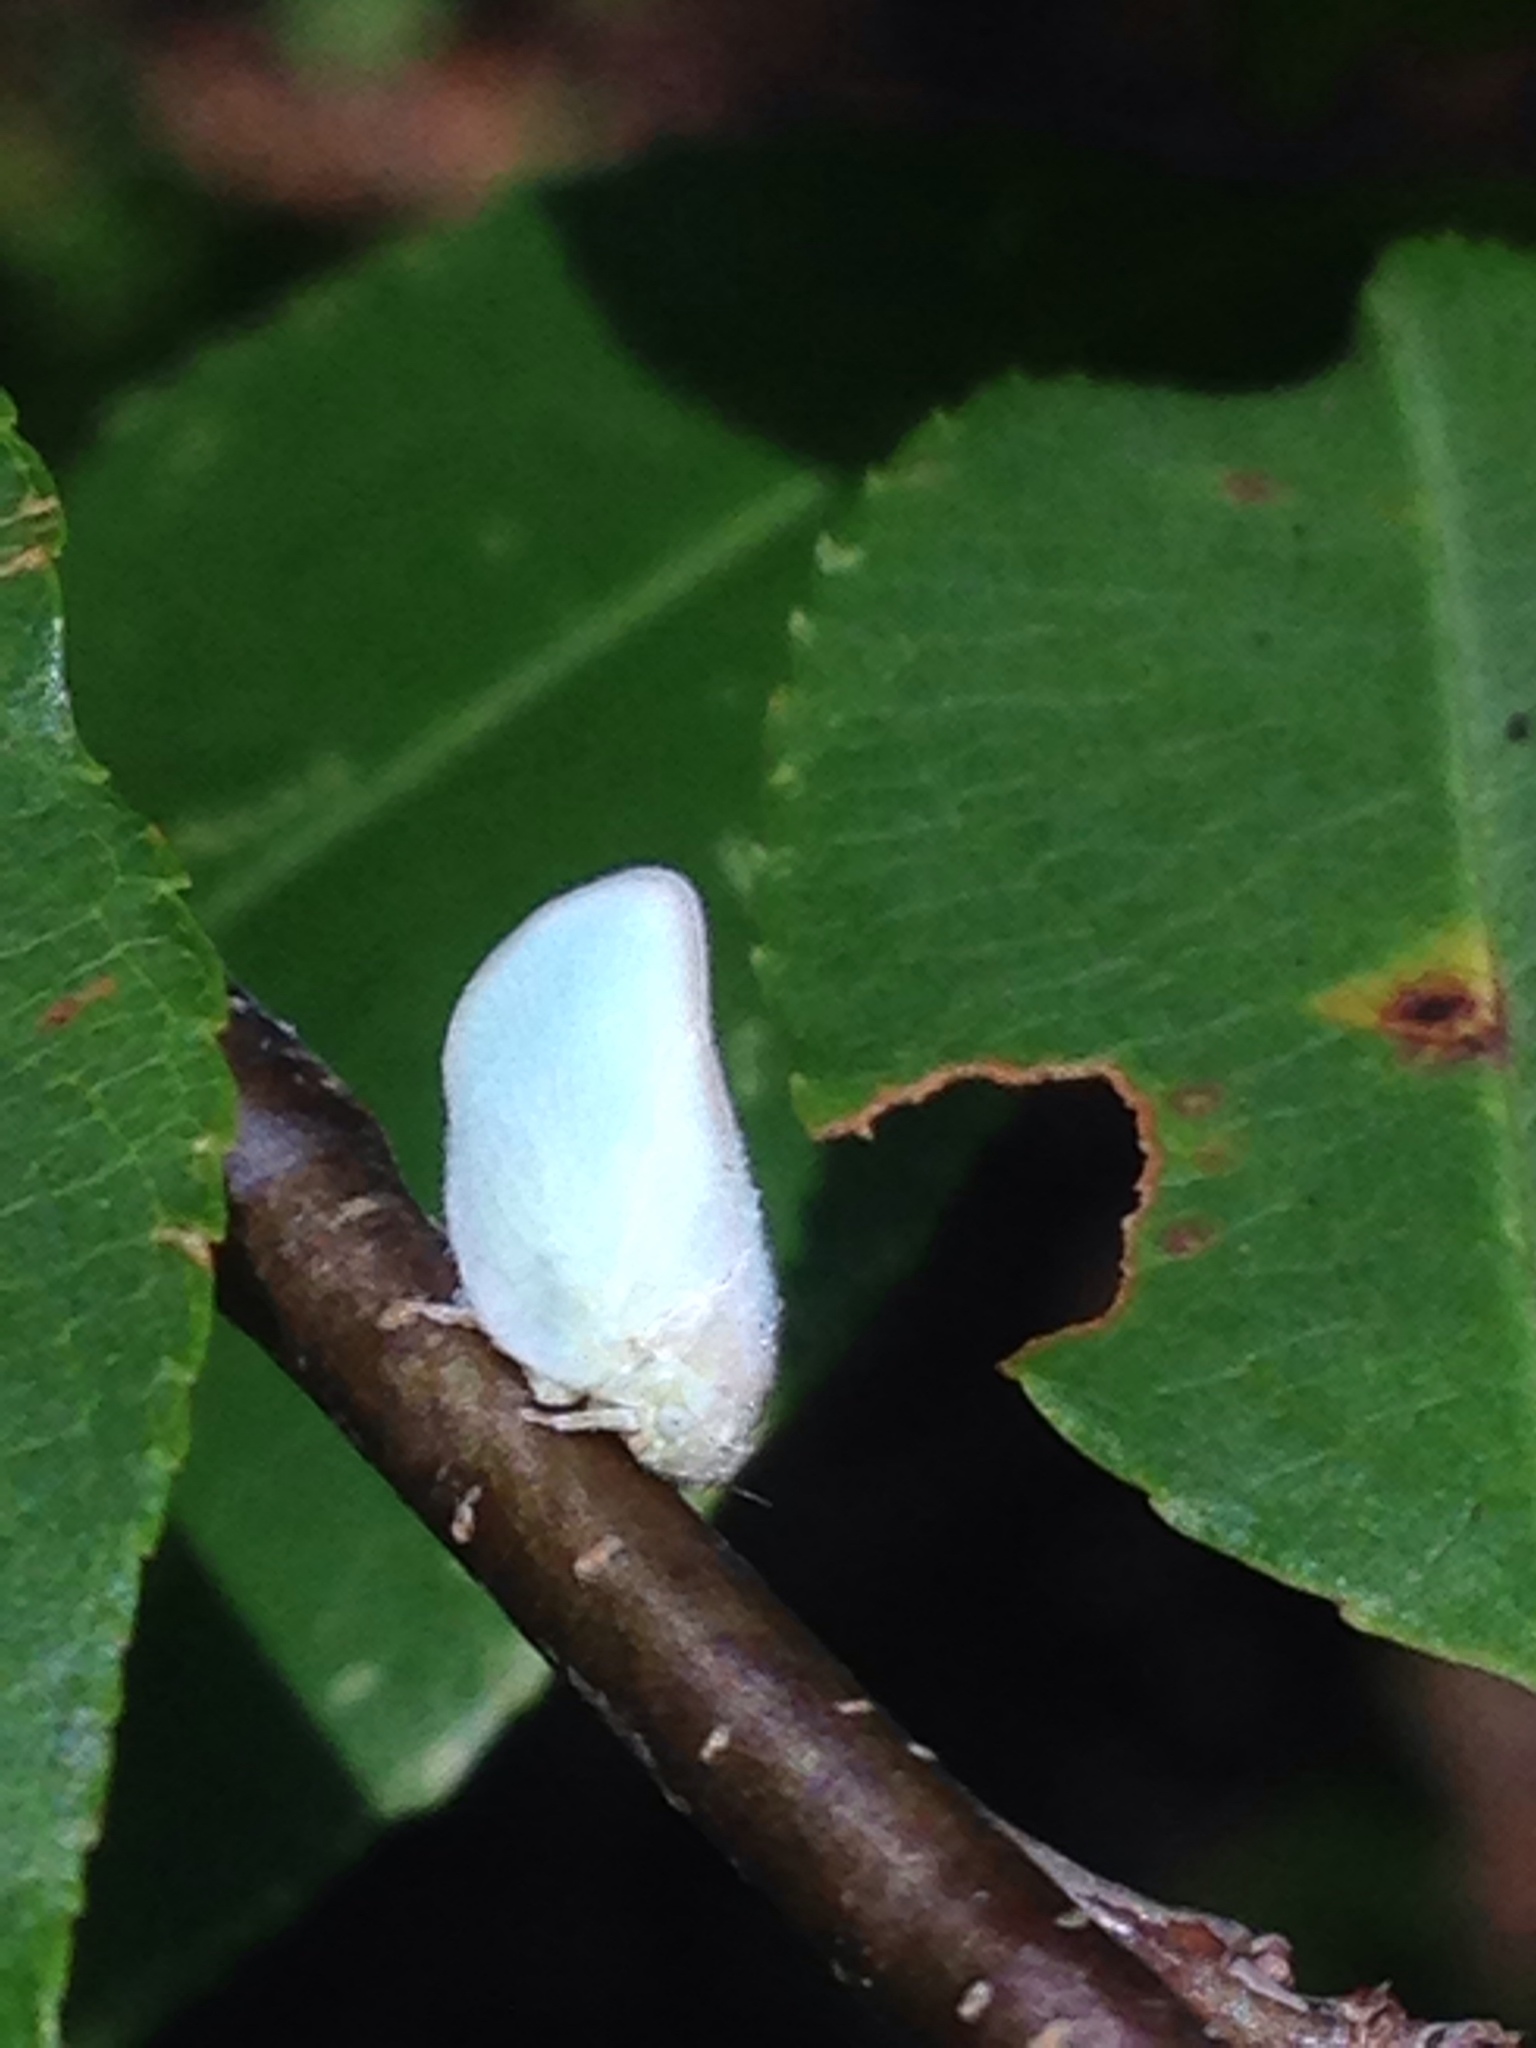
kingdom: Animalia
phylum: Arthropoda
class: Insecta
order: Hemiptera
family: Flatidae
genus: Ormenoides
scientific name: Ormenoides venusta
